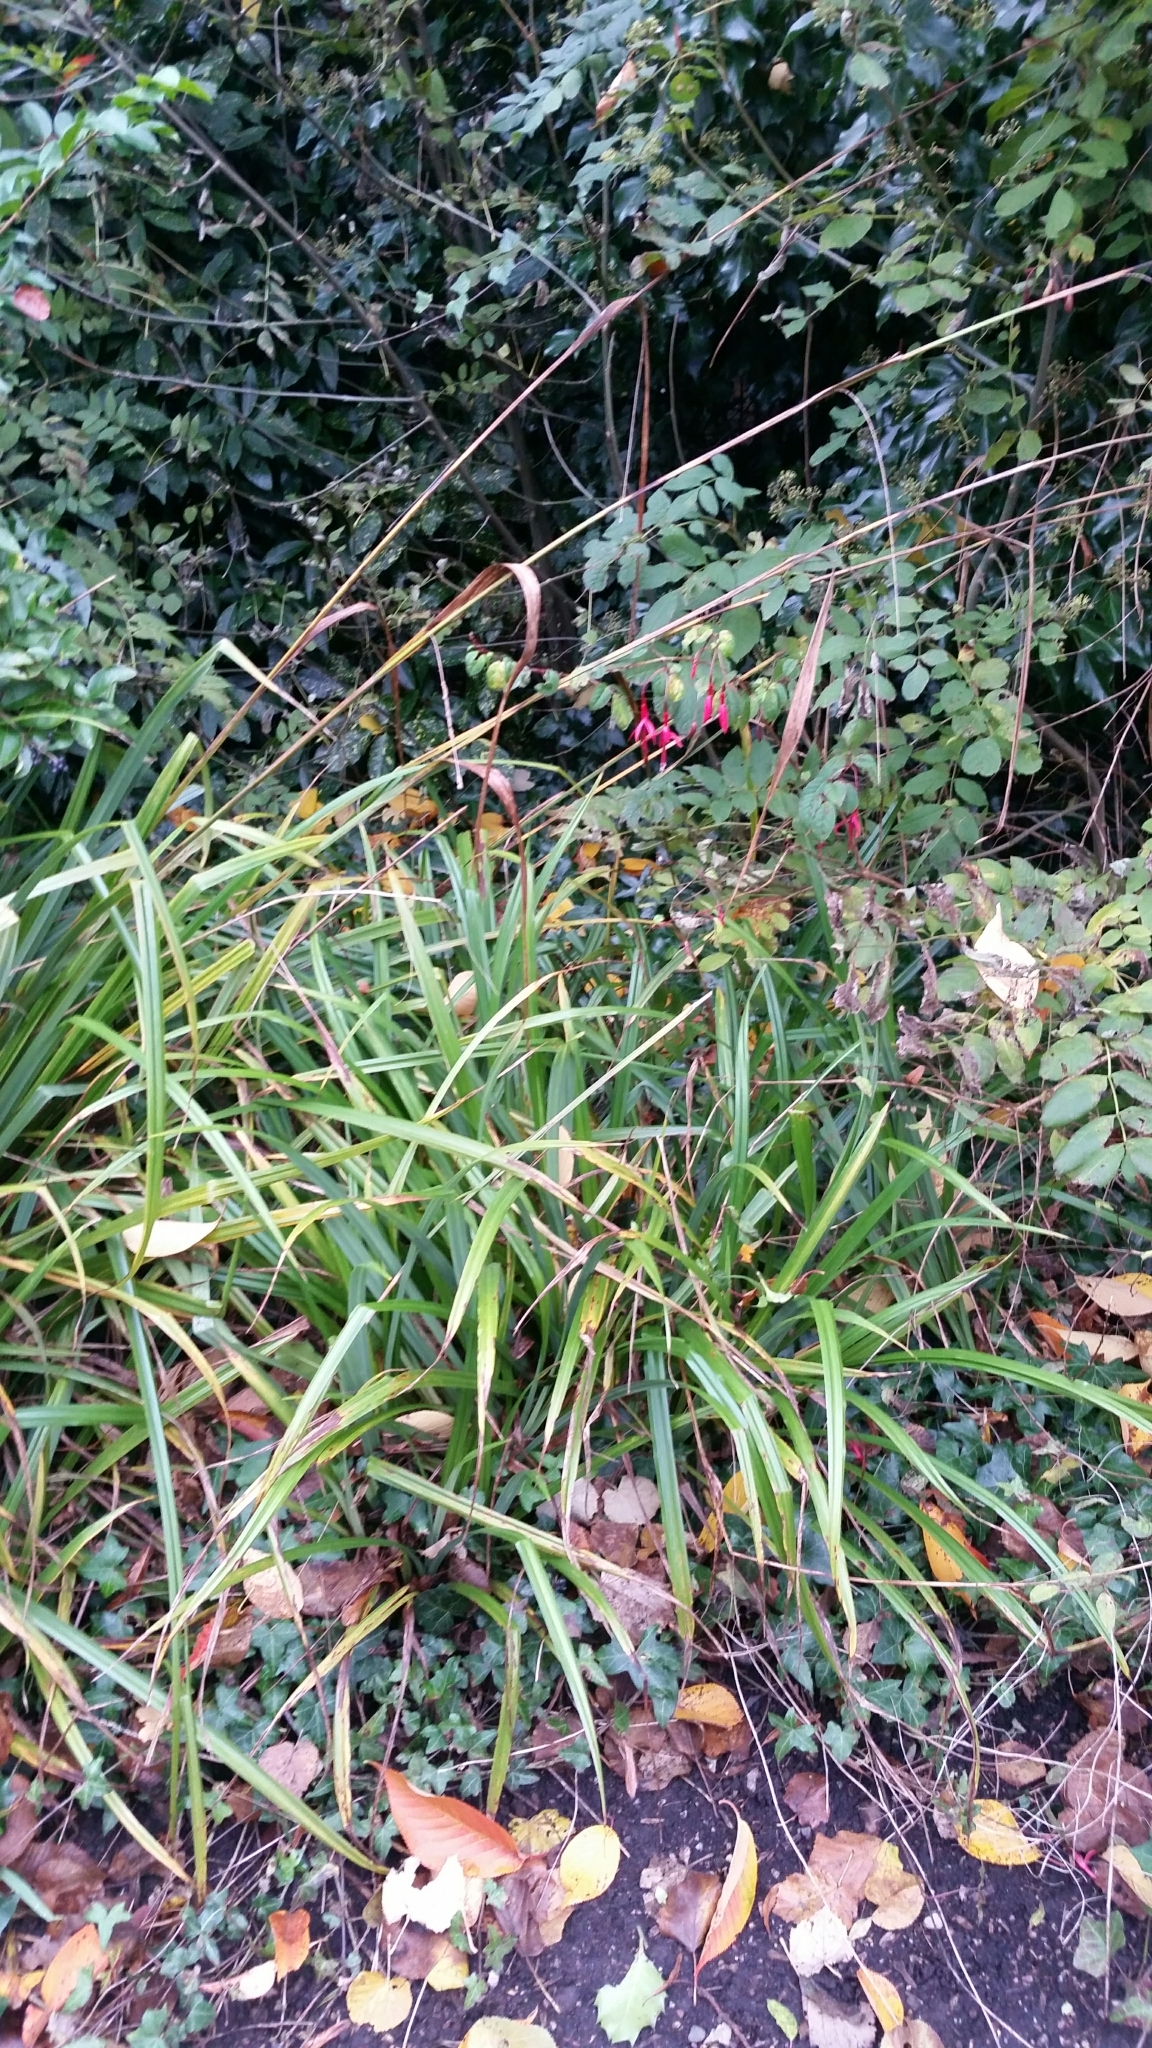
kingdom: Plantae
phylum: Tracheophyta
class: Liliopsida
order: Poales
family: Cyperaceae
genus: Carex
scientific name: Carex pendula
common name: Pendulous sedge
